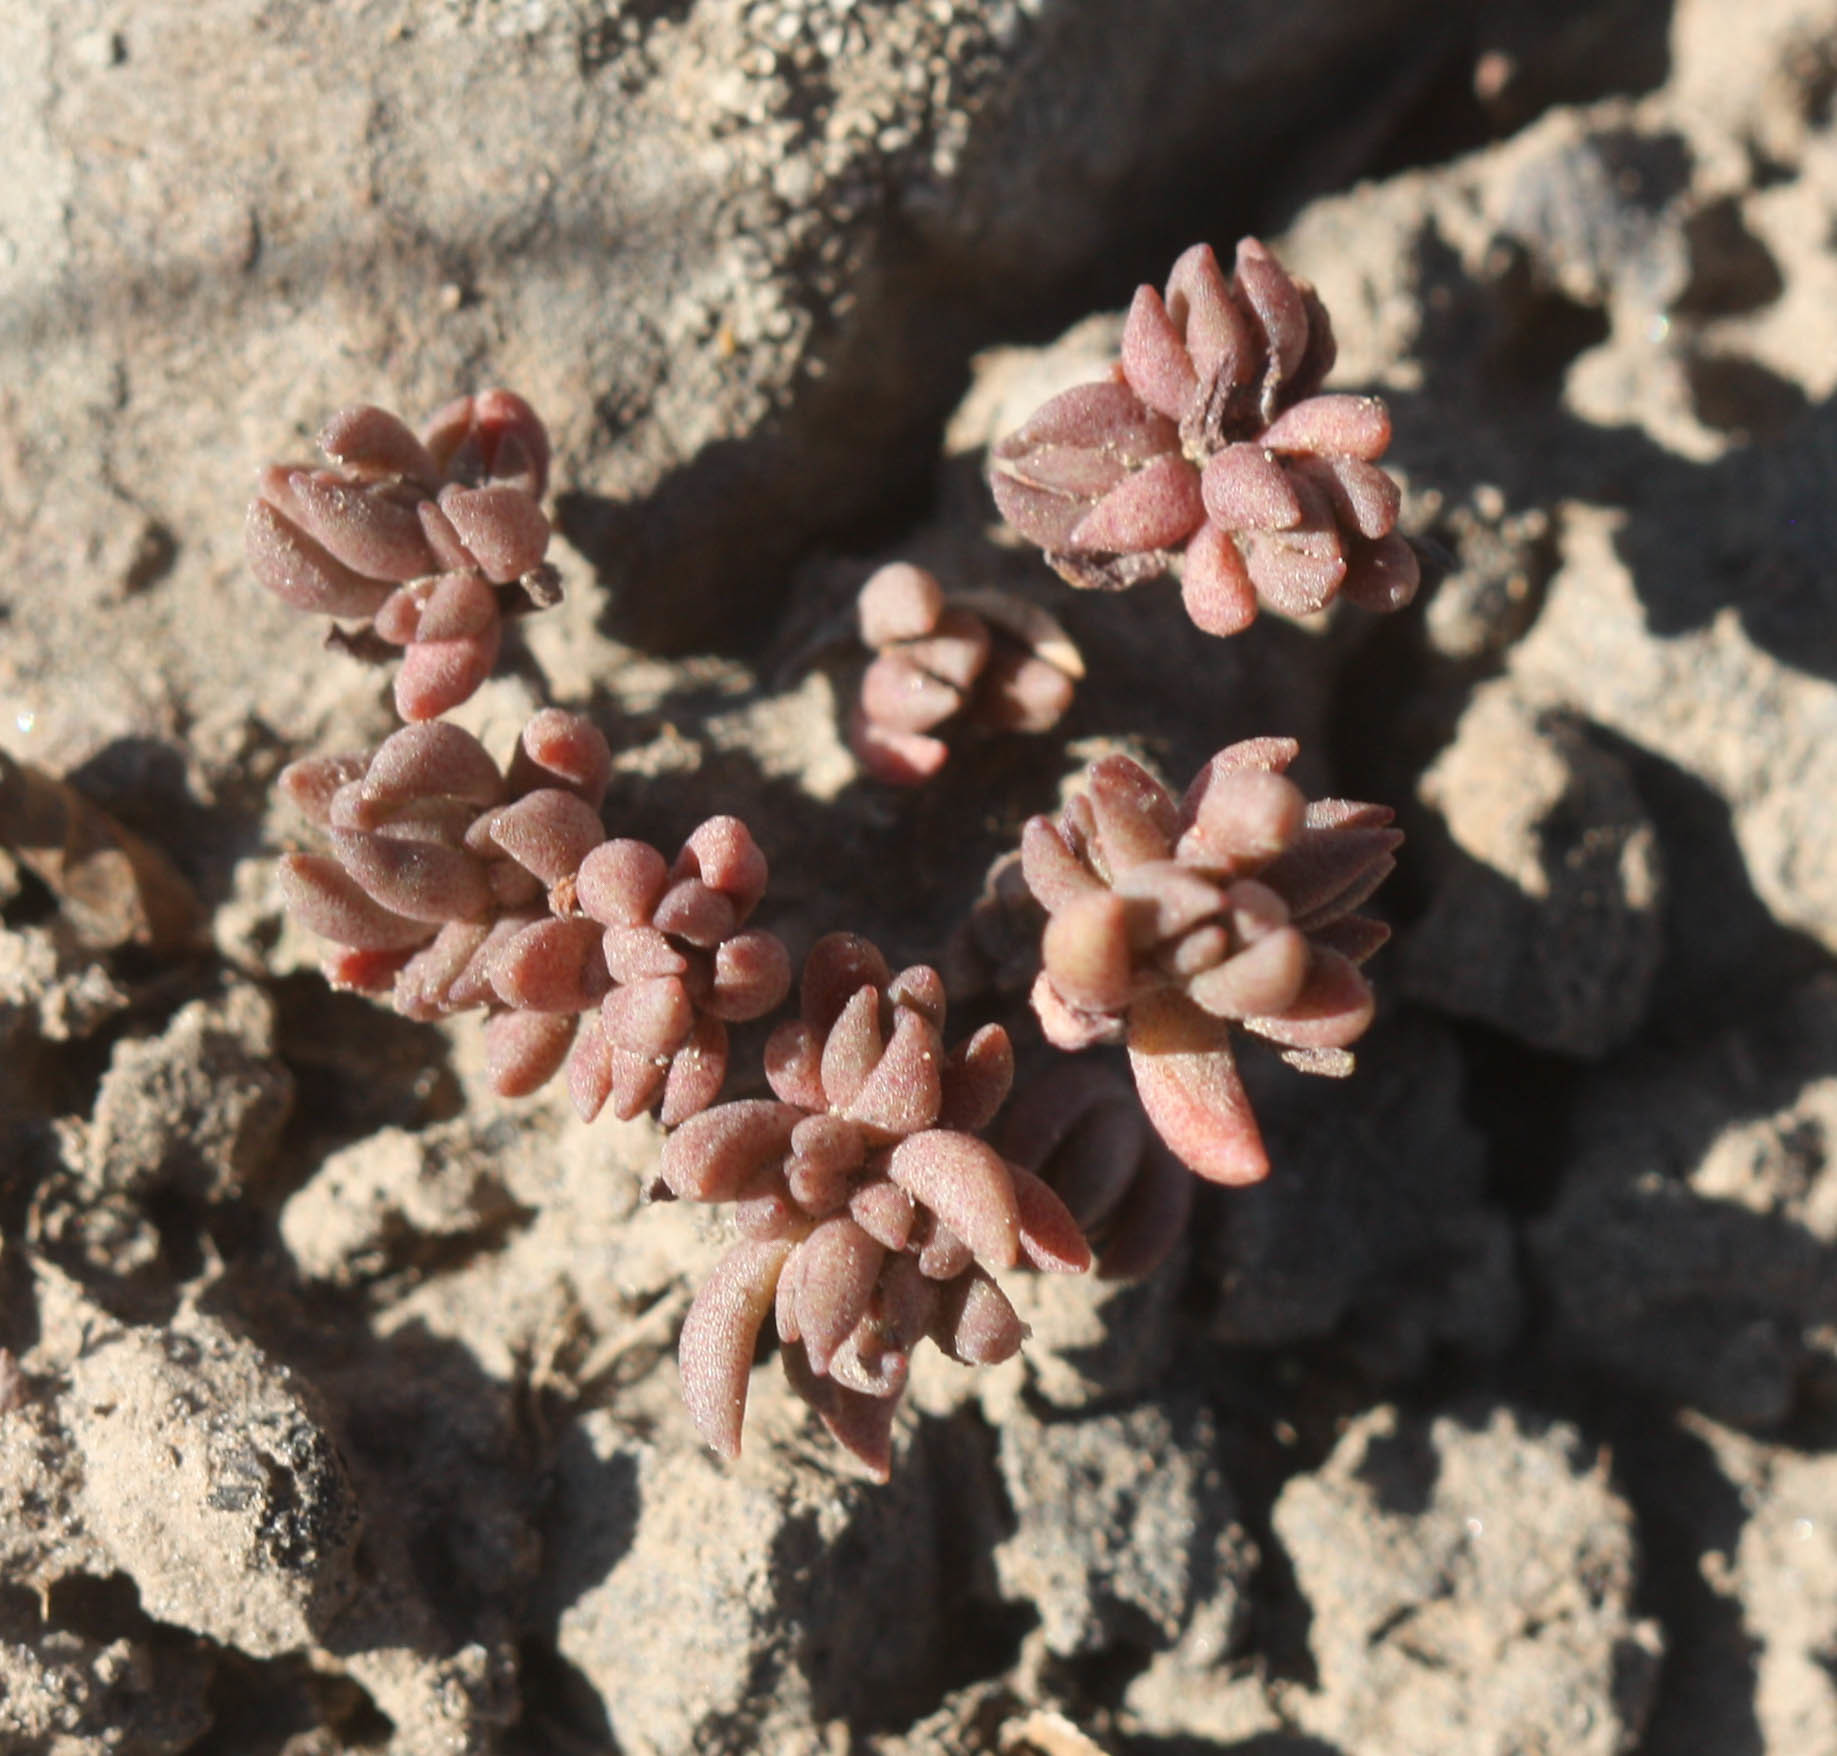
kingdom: Plantae
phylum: Tracheophyta
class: Magnoliopsida
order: Saxifragales
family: Crassulaceae
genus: Sedum
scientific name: Sedum lanceolatum
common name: Common stonecrop
